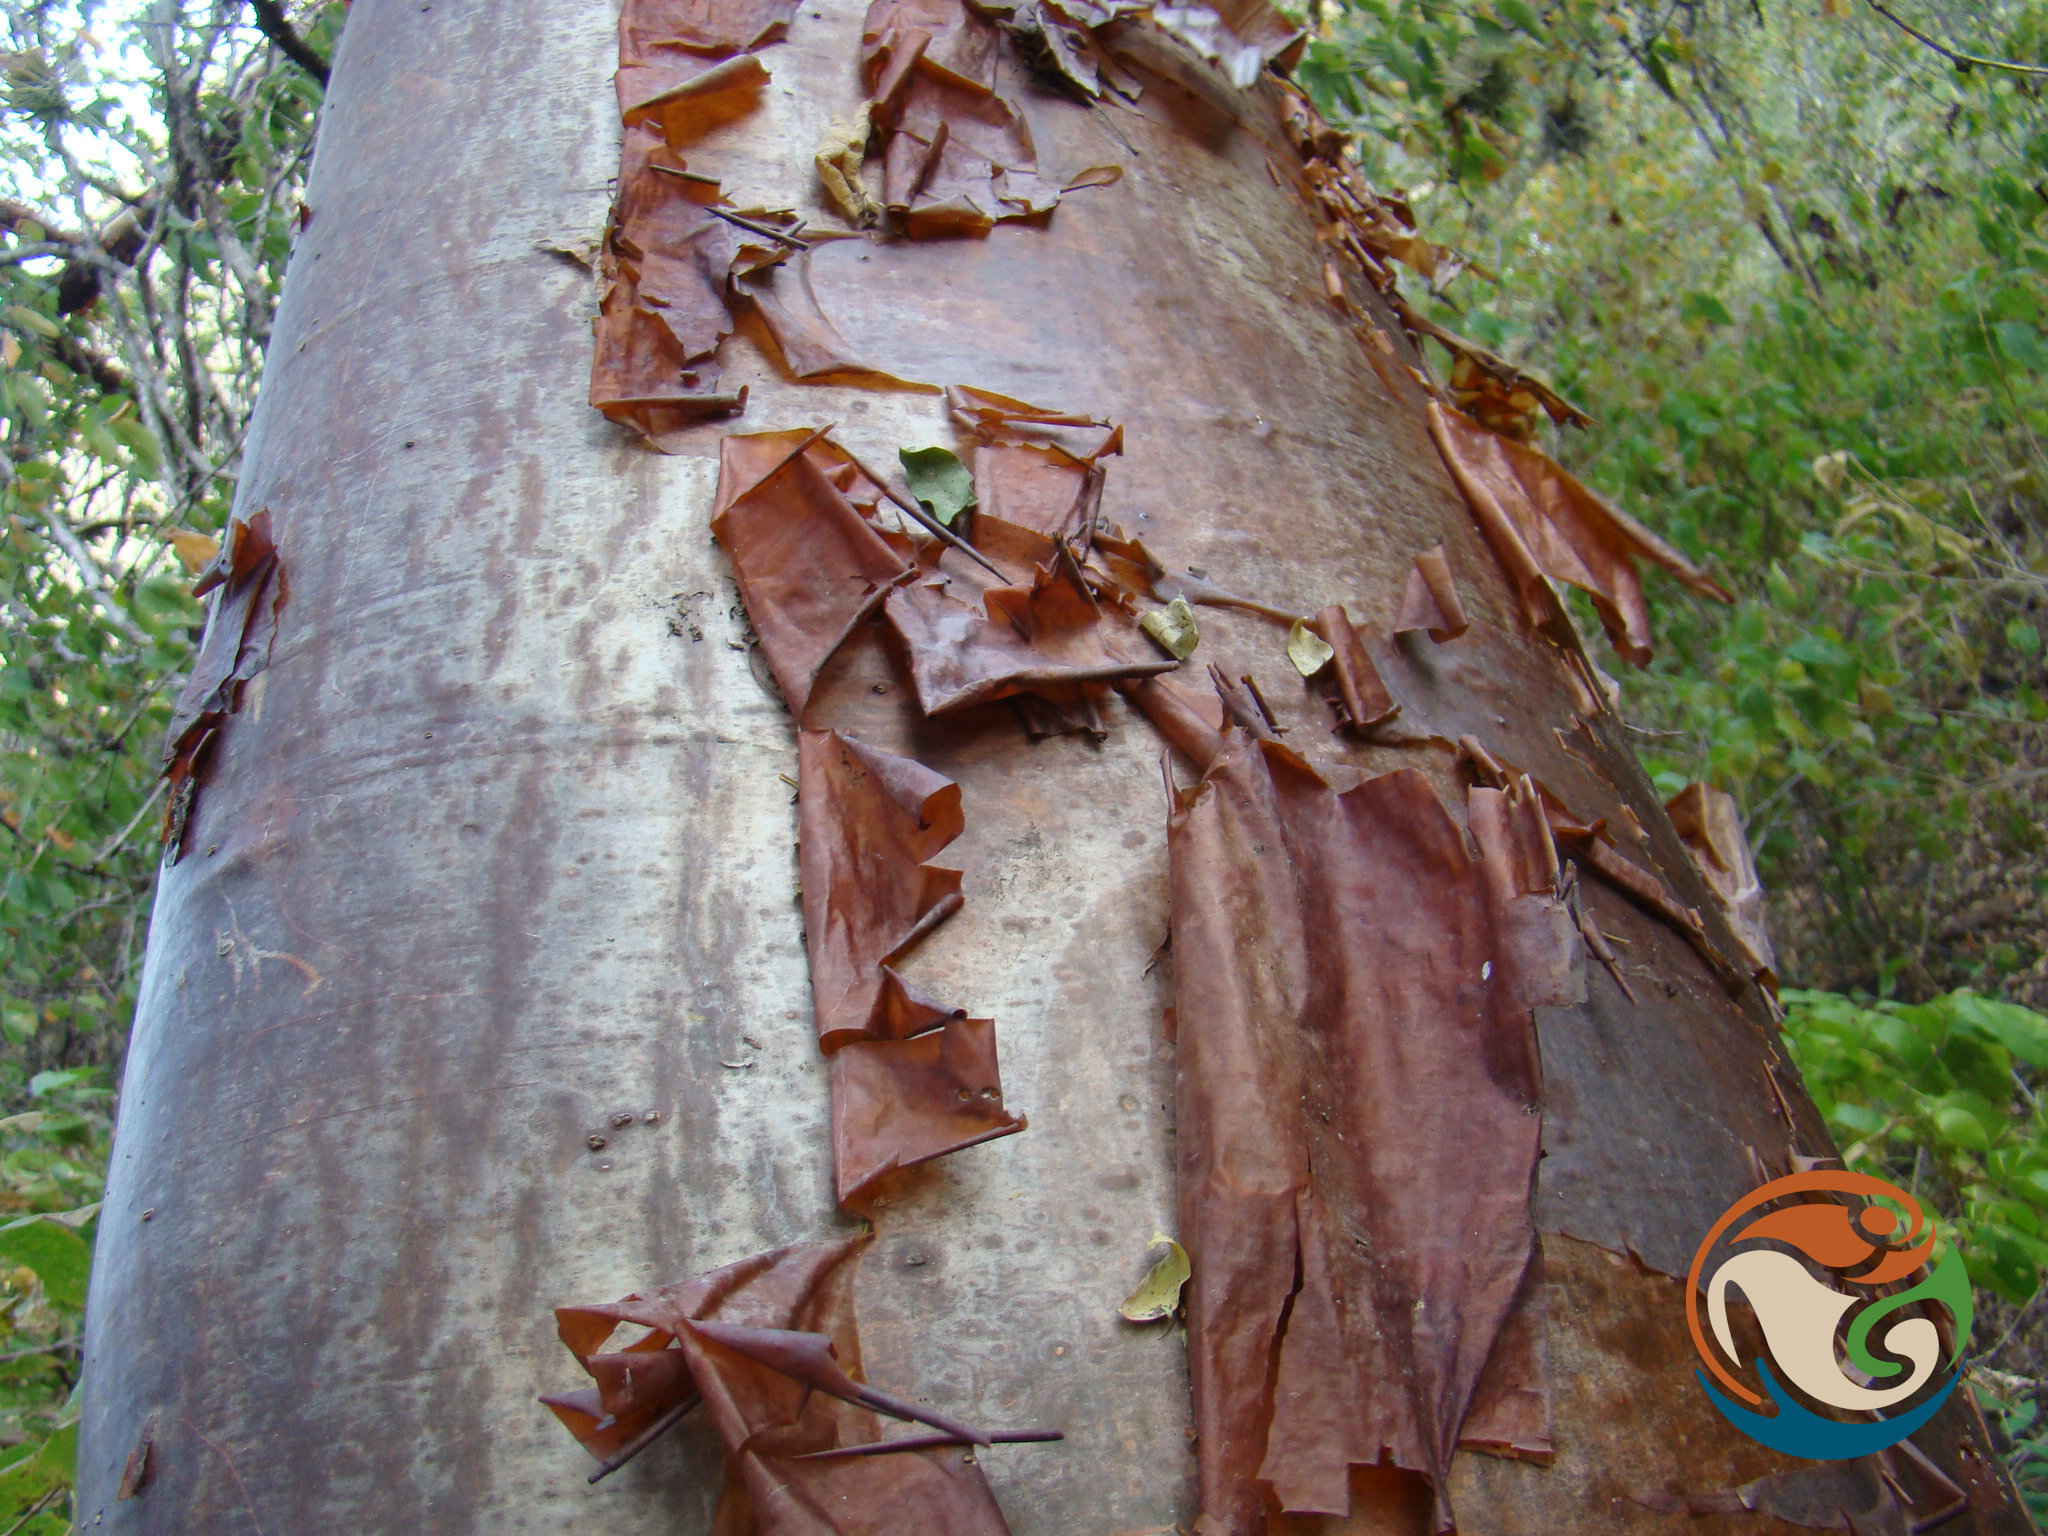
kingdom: Plantae
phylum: Tracheophyta
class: Magnoliopsida
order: Sapindales
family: Burseraceae
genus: Bursera
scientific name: Bursera cinerea
